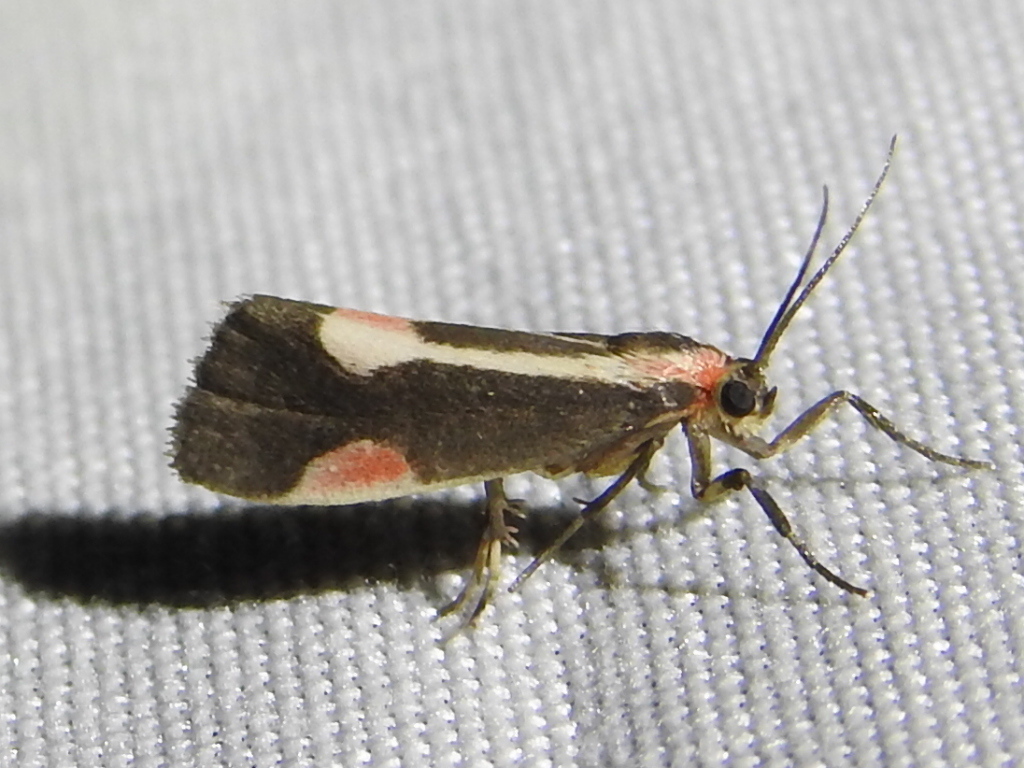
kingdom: Animalia
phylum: Arthropoda
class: Insecta
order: Lepidoptera
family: Erebidae
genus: Cisthene
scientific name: Cisthene packardii
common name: Packard's lichen moth
